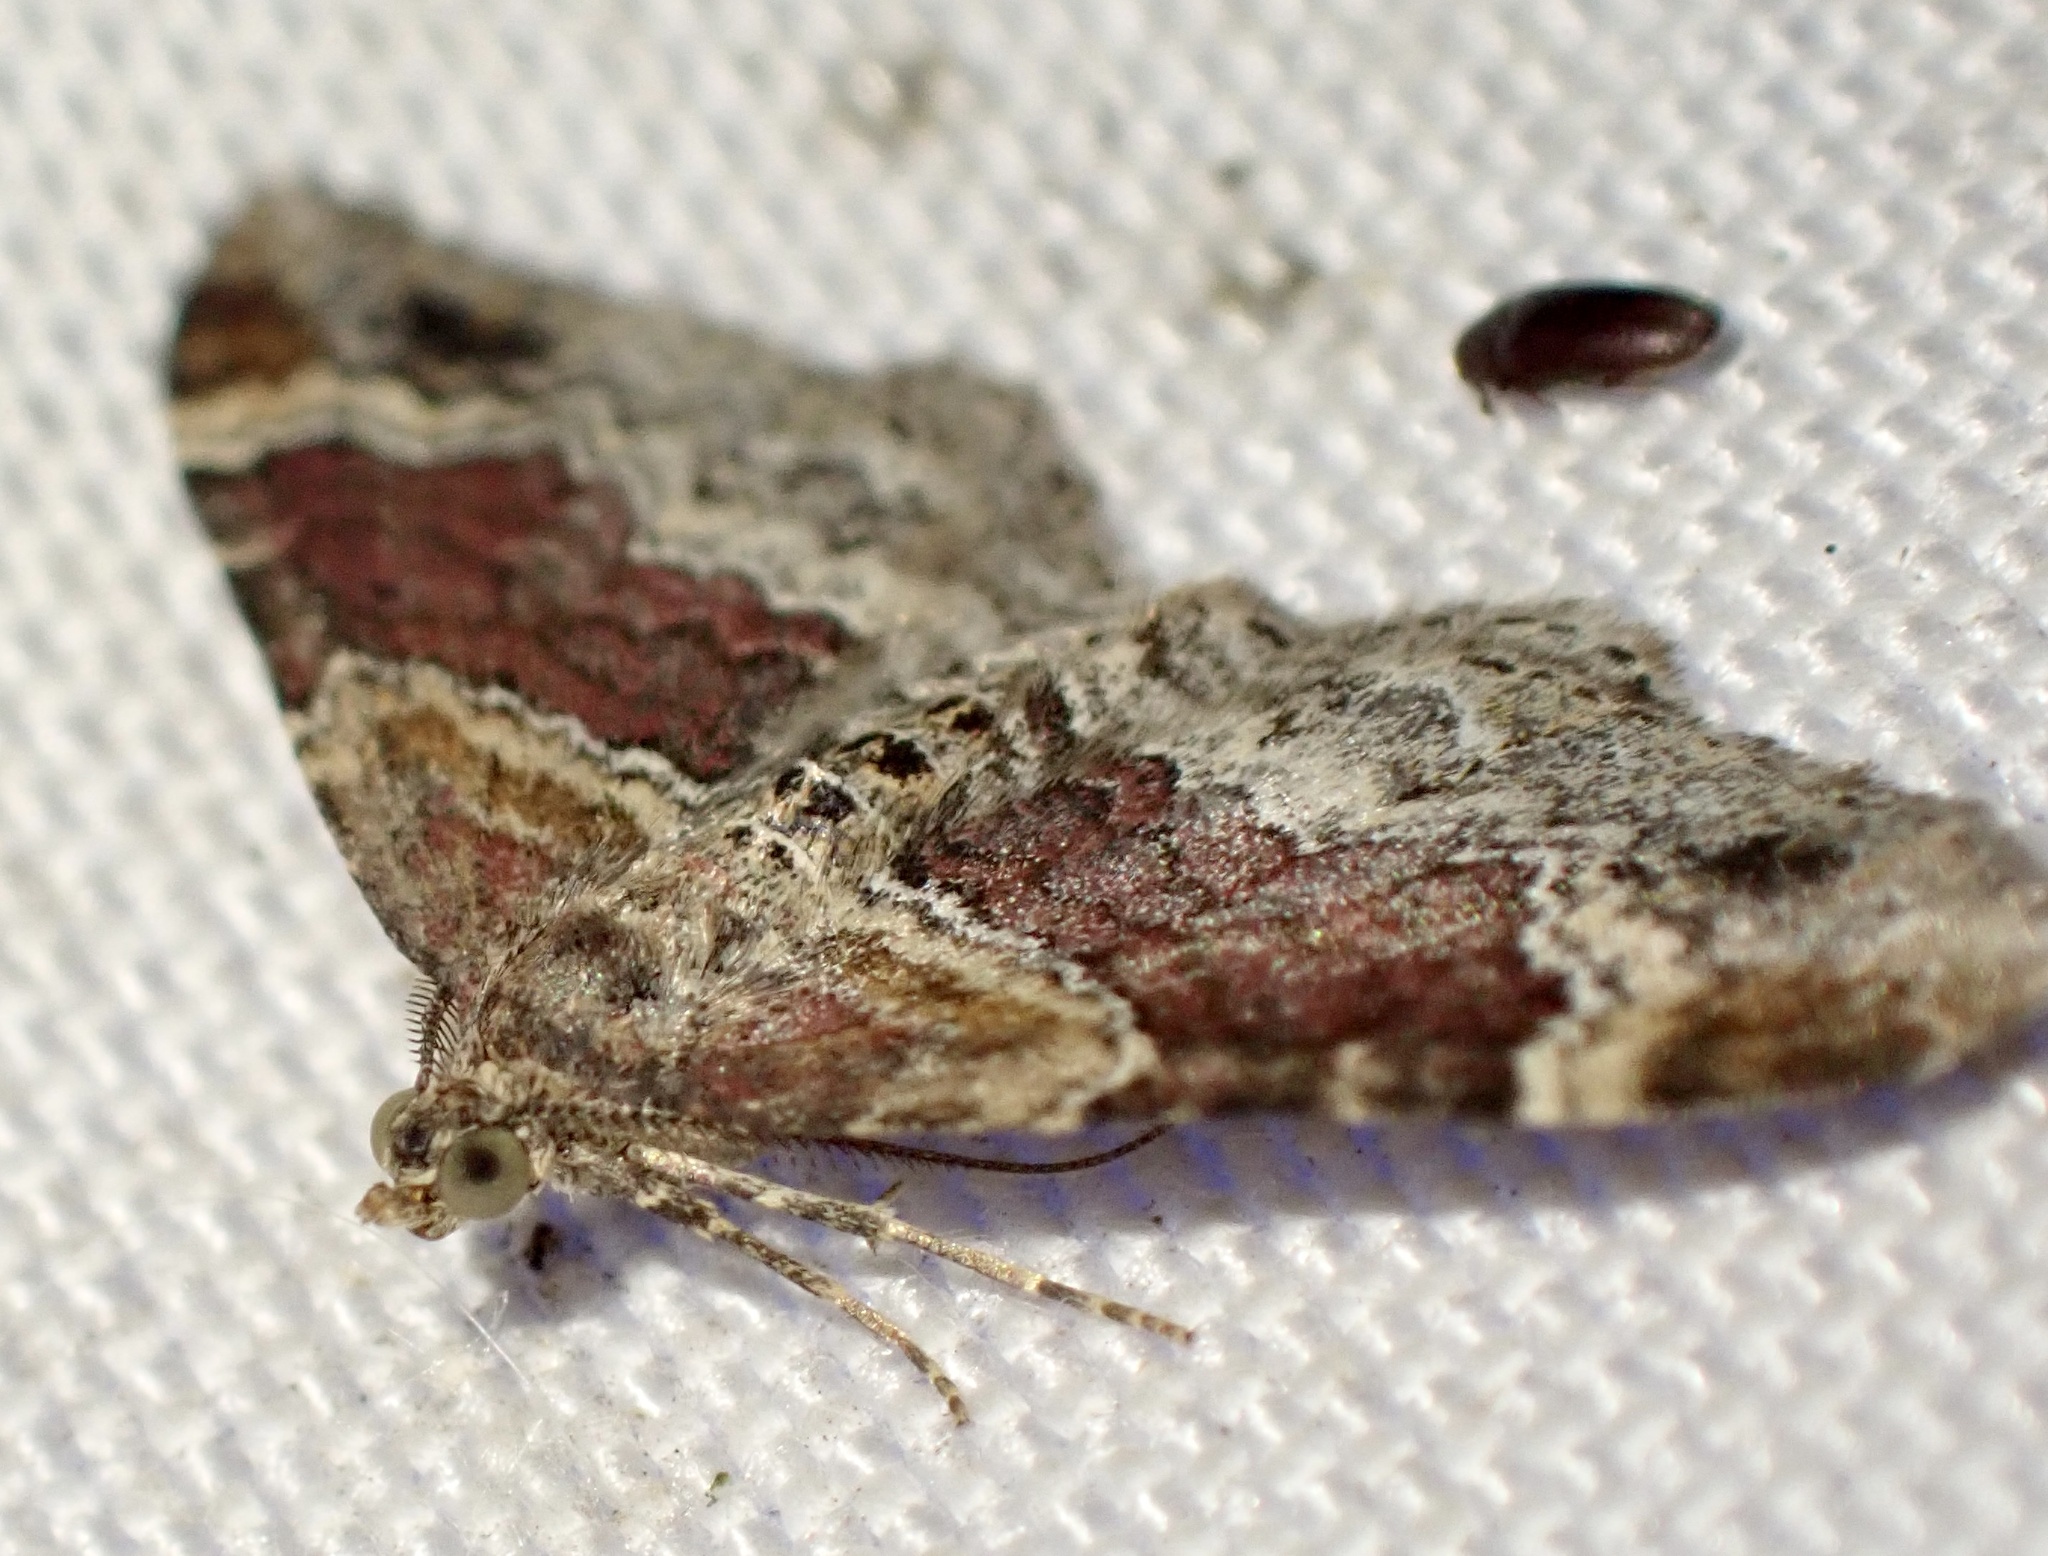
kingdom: Animalia
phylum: Arthropoda
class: Insecta
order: Lepidoptera
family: Geometridae
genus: Xanthorhoe
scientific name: Xanthorhoe spadicearia
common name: Red twin-spot carpet
